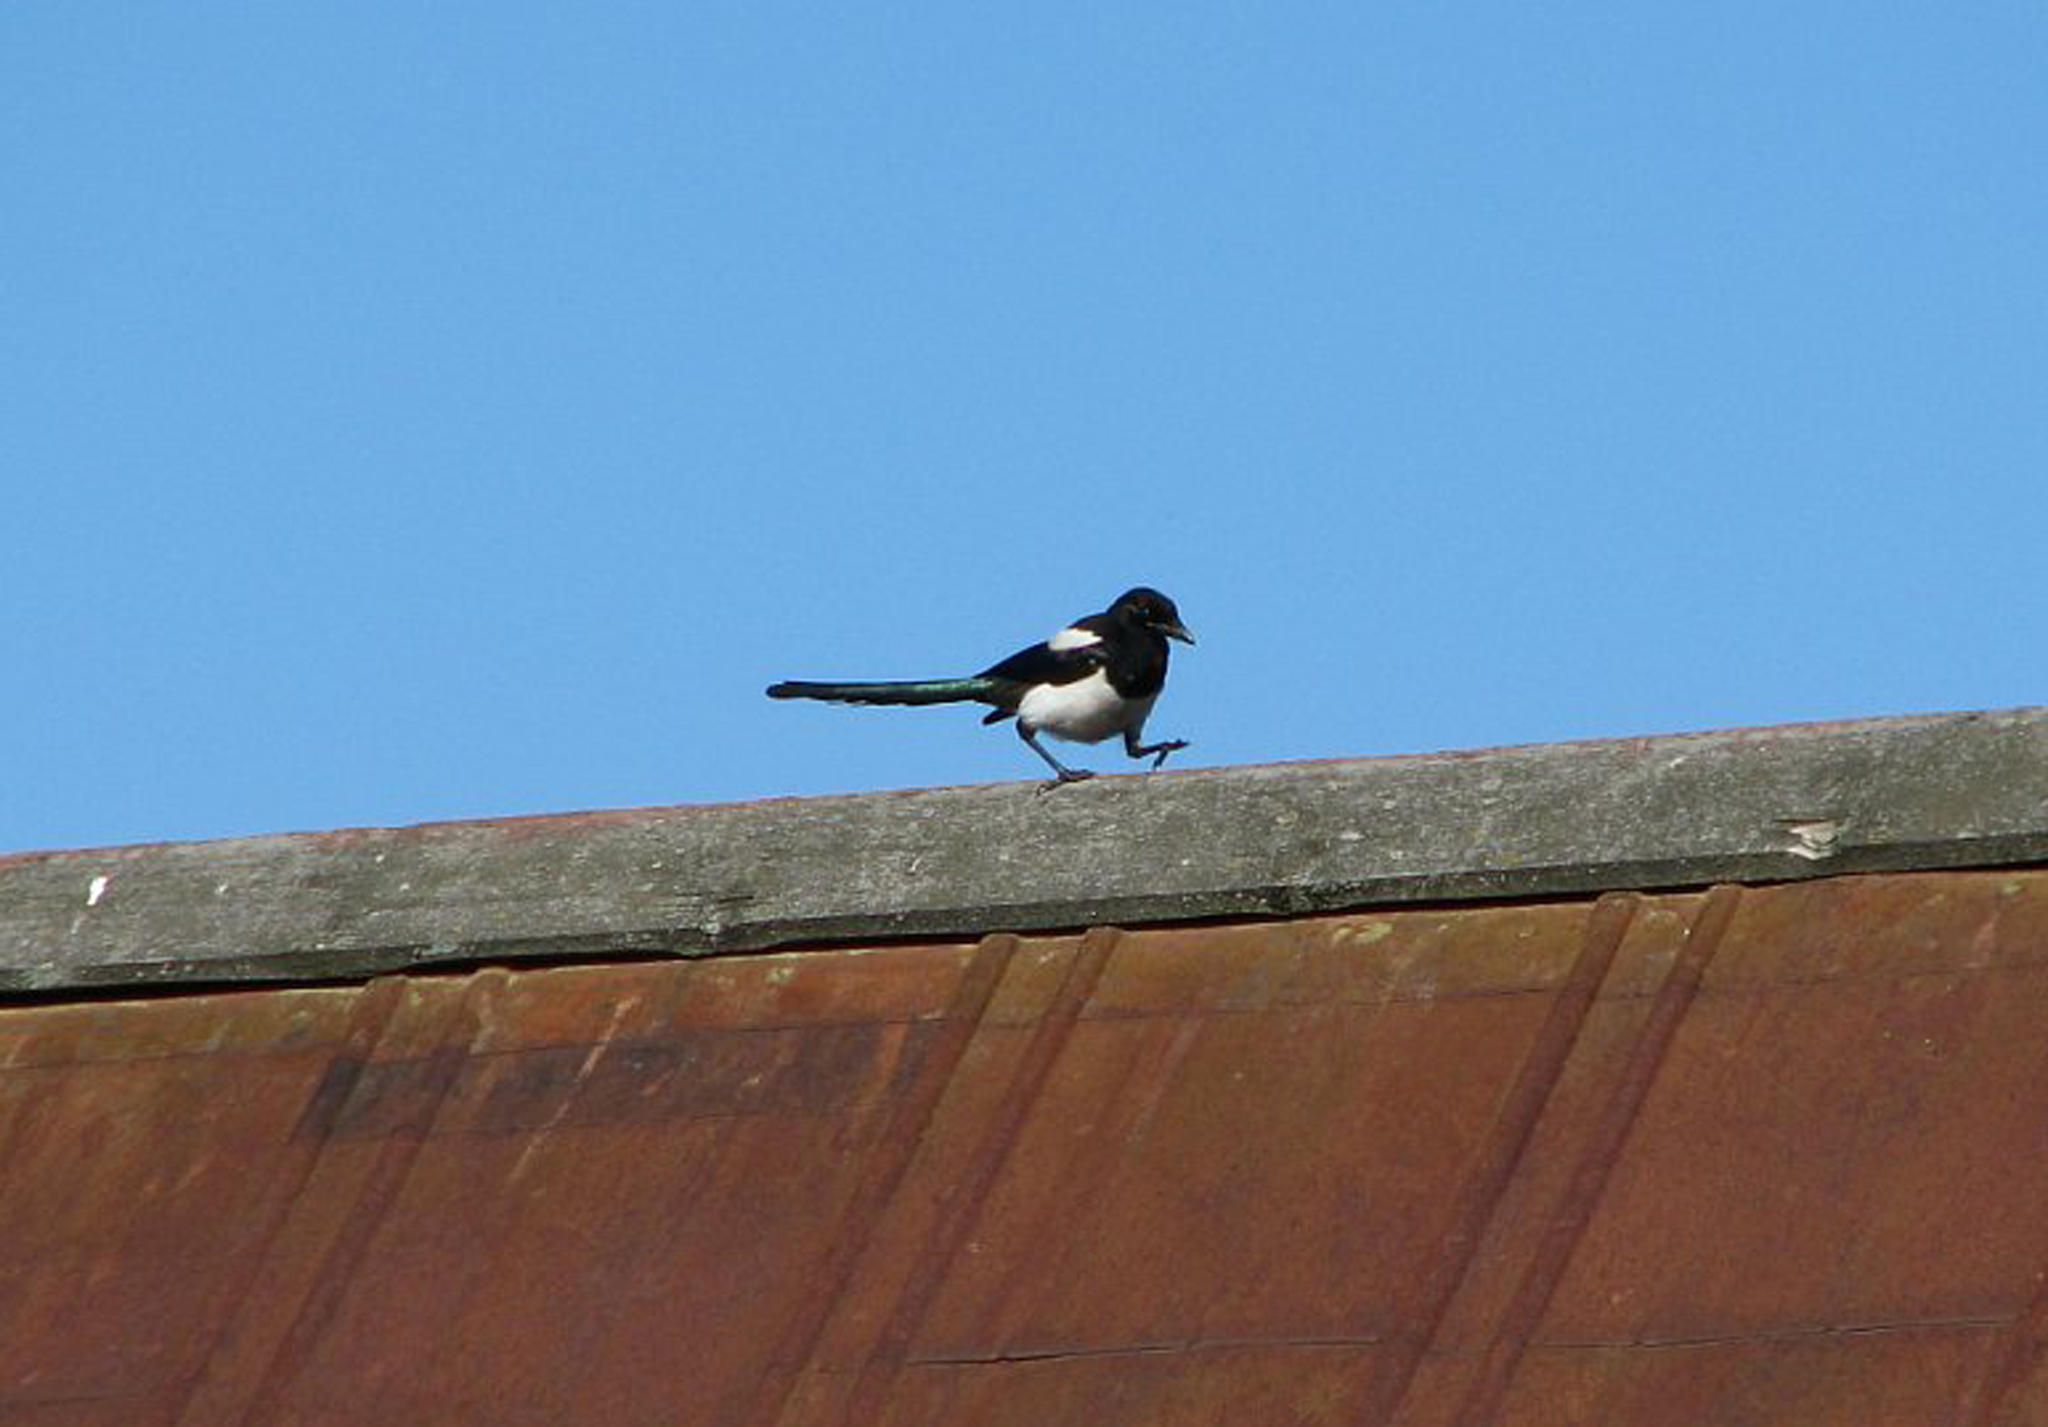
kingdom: Animalia
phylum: Chordata
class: Aves
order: Passeriformes
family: Corvidae
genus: Pica
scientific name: Pica pica
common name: Eurasian magpie
